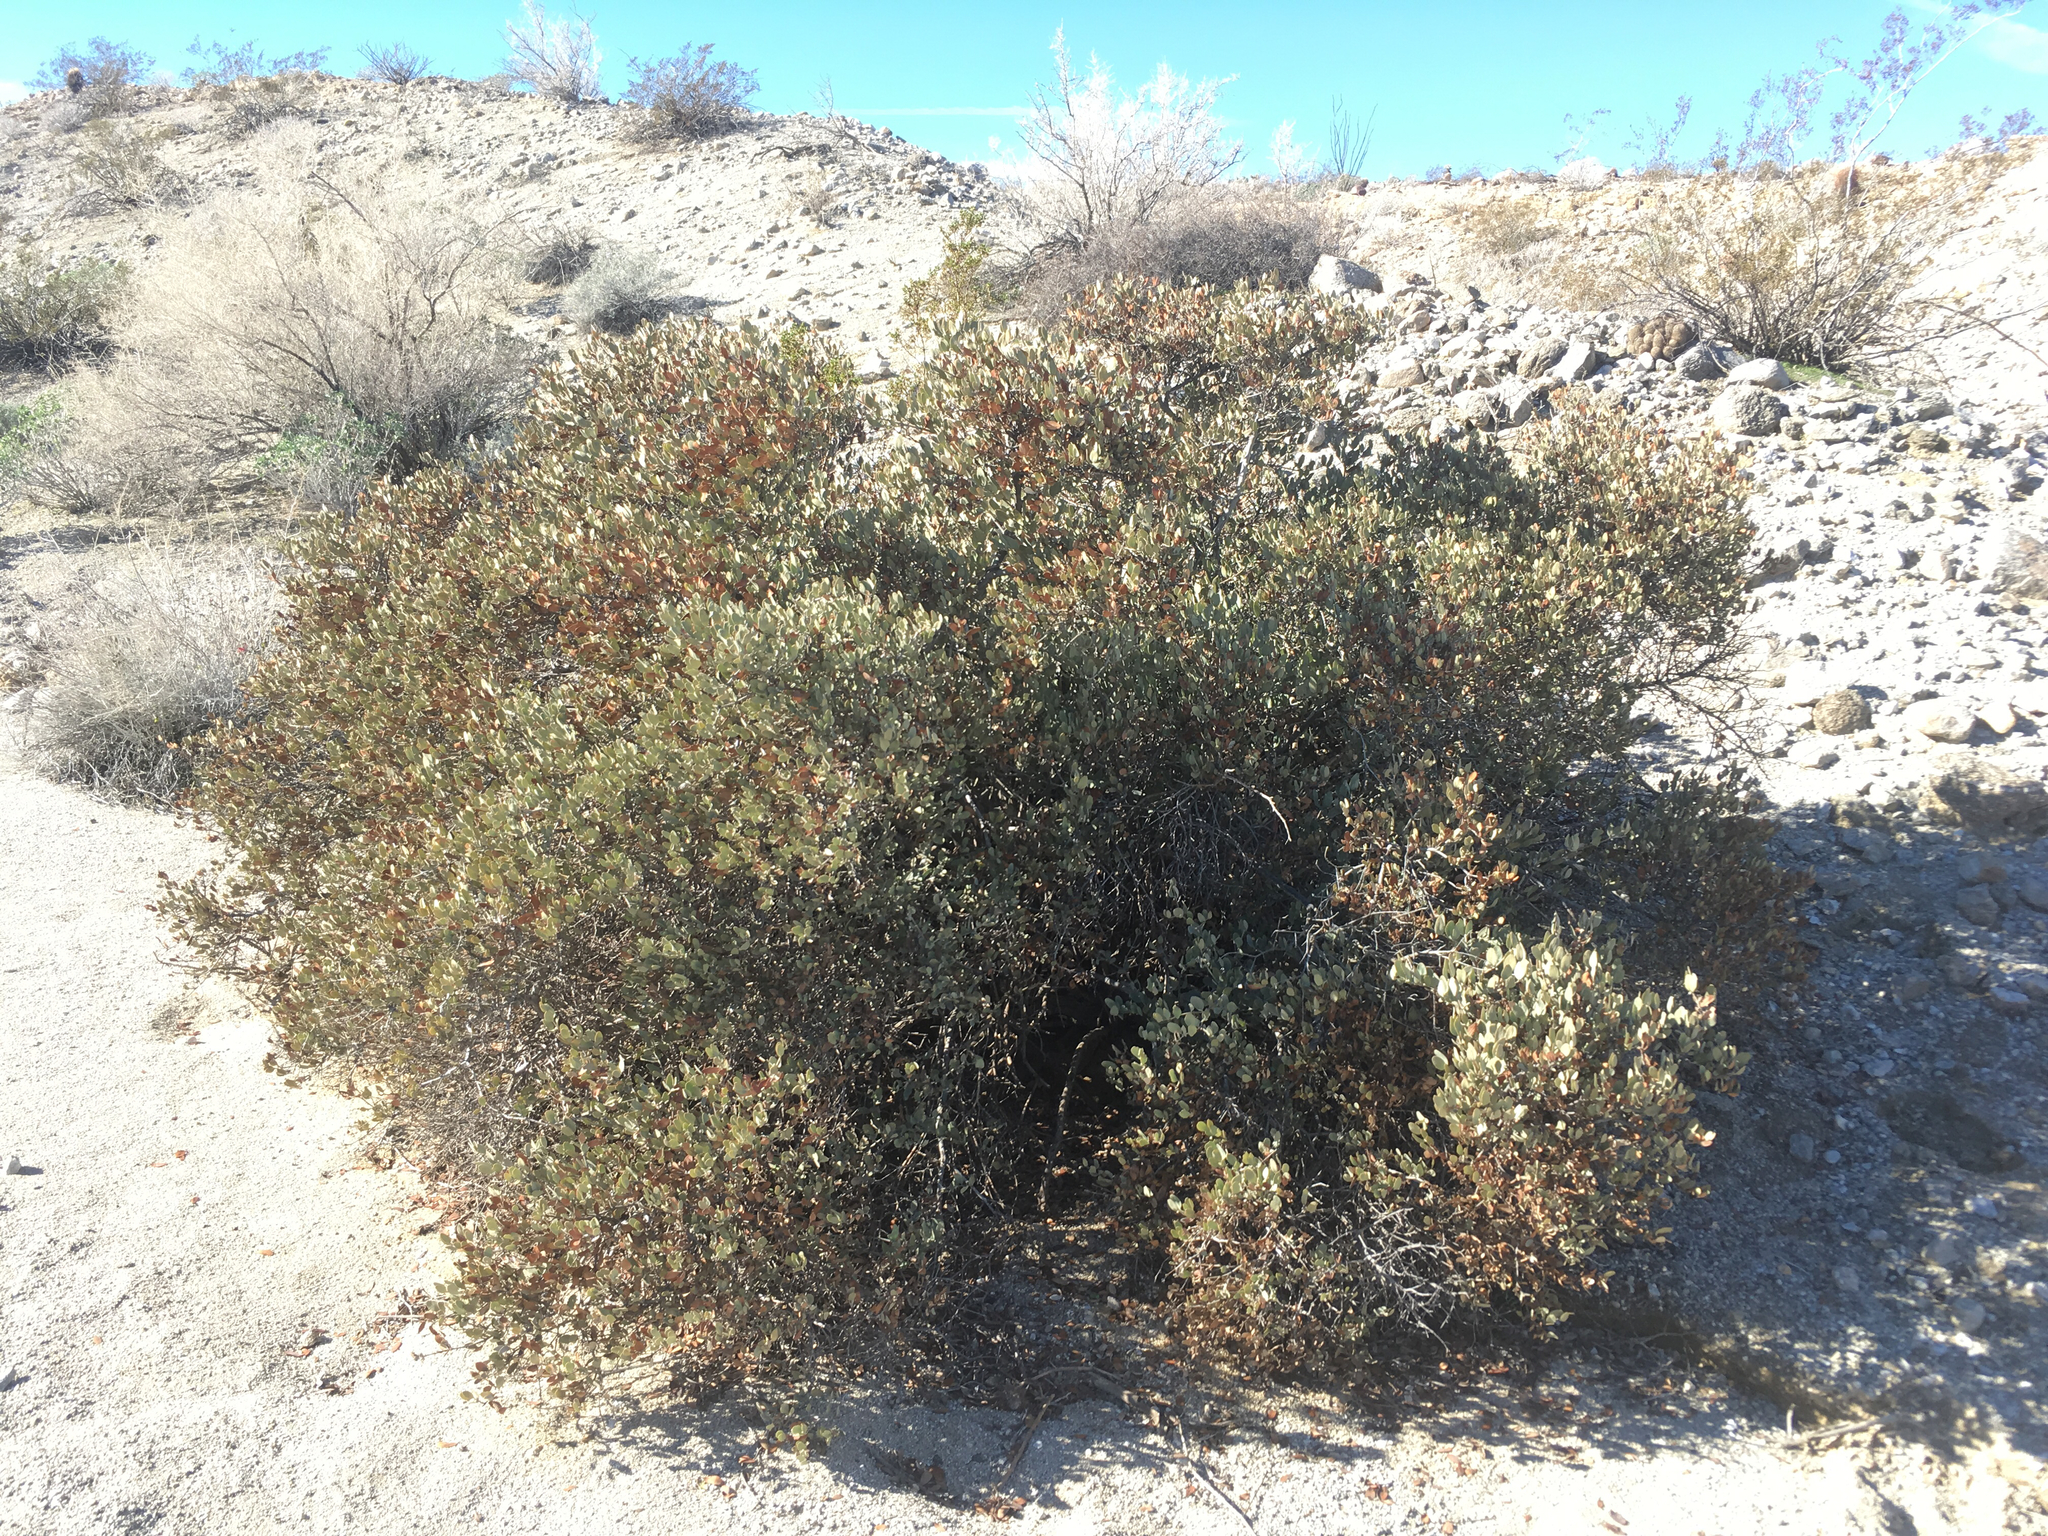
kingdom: Plantae
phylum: Tracheophyta
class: Magnoliopsida
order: Caryophyllales
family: Simmondsiaceae
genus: Simmondsia
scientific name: Simmondsia chinensis
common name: Jojoba
